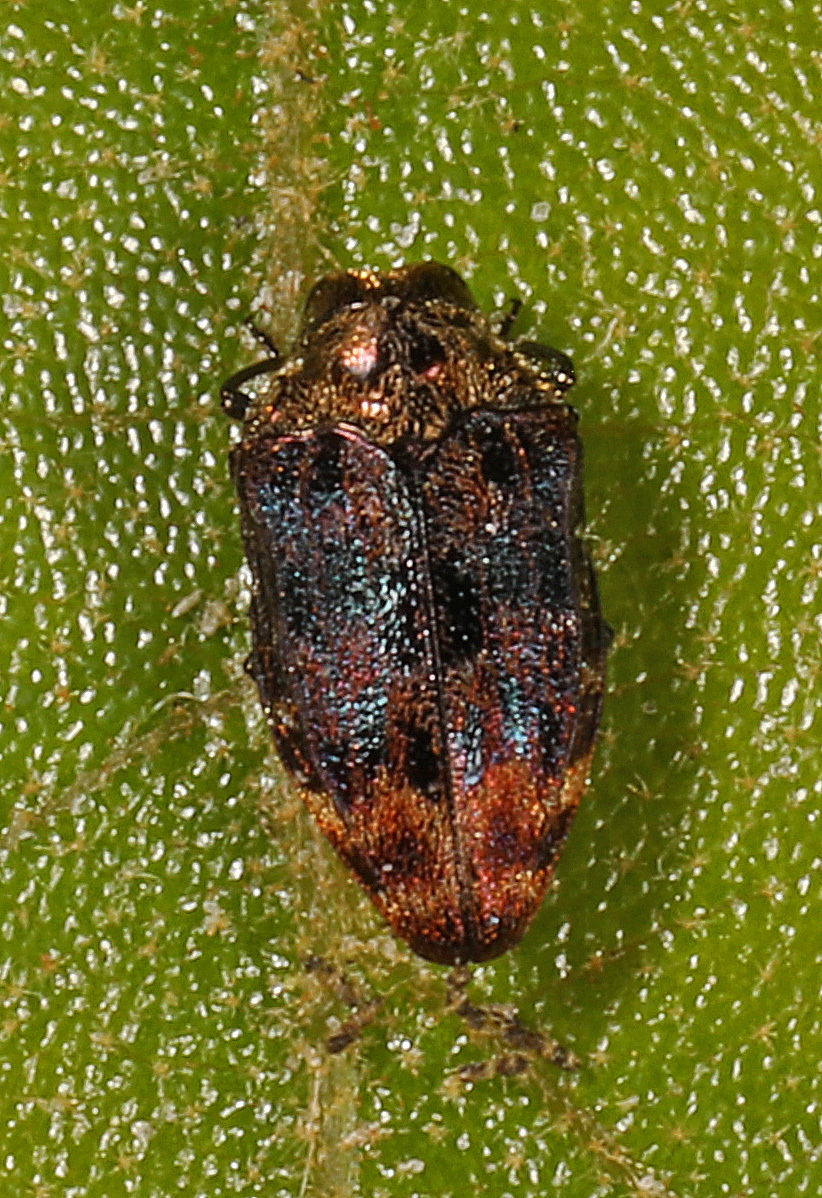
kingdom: Animalia
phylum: Arthropoda
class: Insecta
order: Coleoptera
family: Buprestidae
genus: Brachys
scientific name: Brachys aerosus
